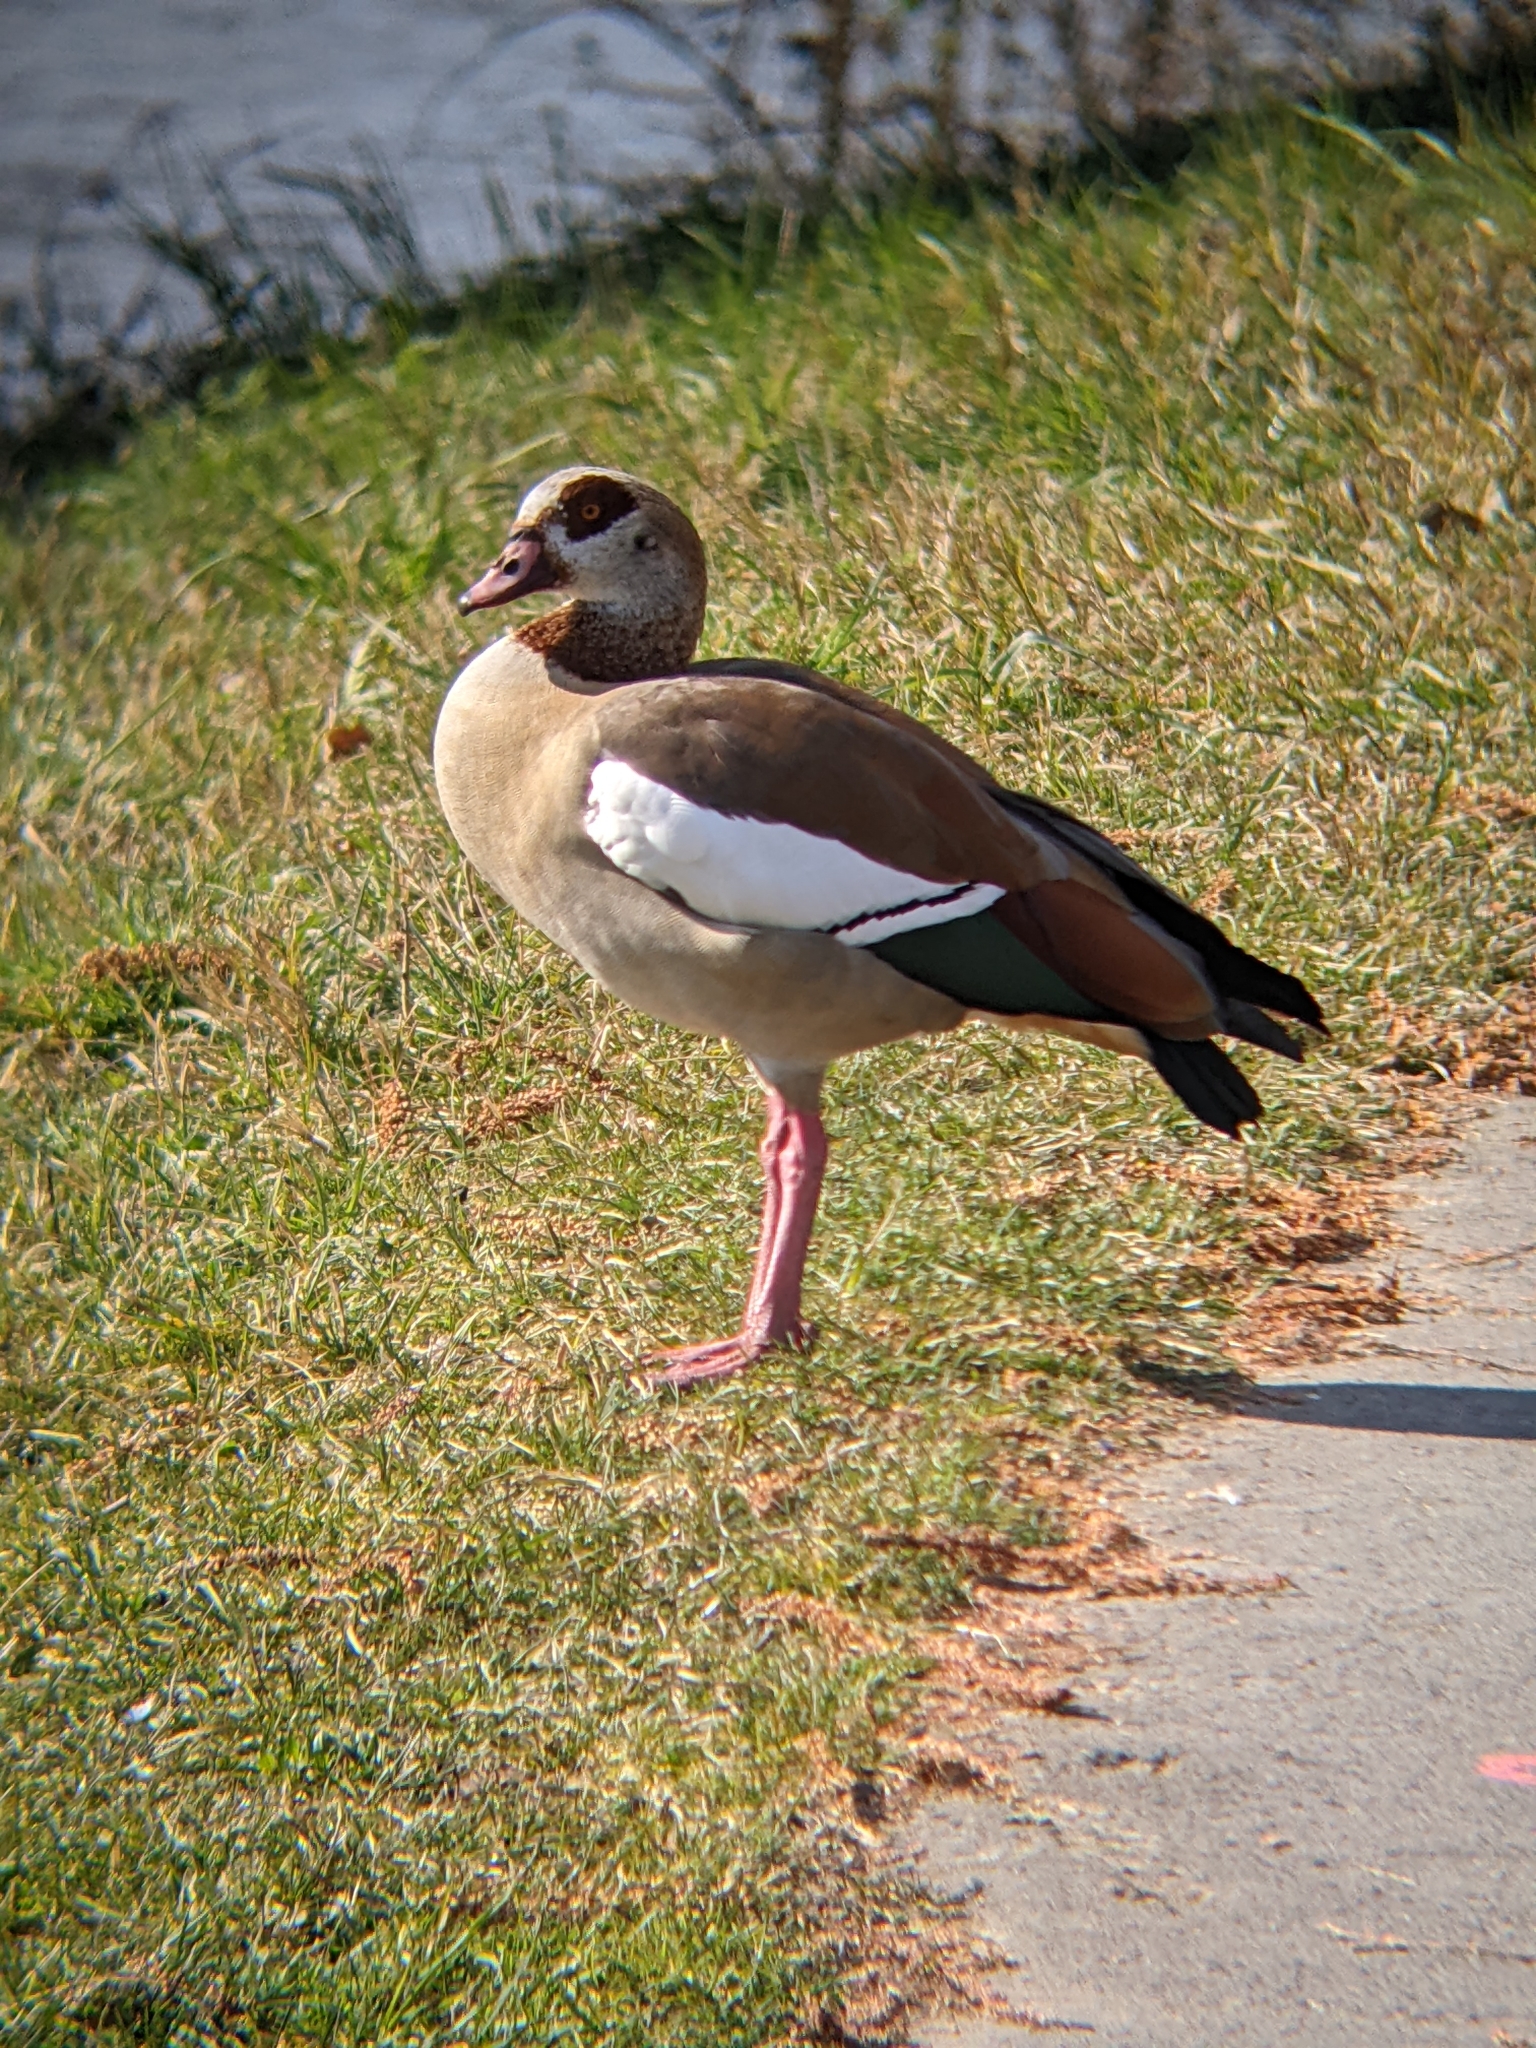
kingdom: Animalia
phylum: Chordata
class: Aves
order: Anseriformes
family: Anatidae
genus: Alopochen
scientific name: Alopochen aegyptiaca
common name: Egyptian goose
